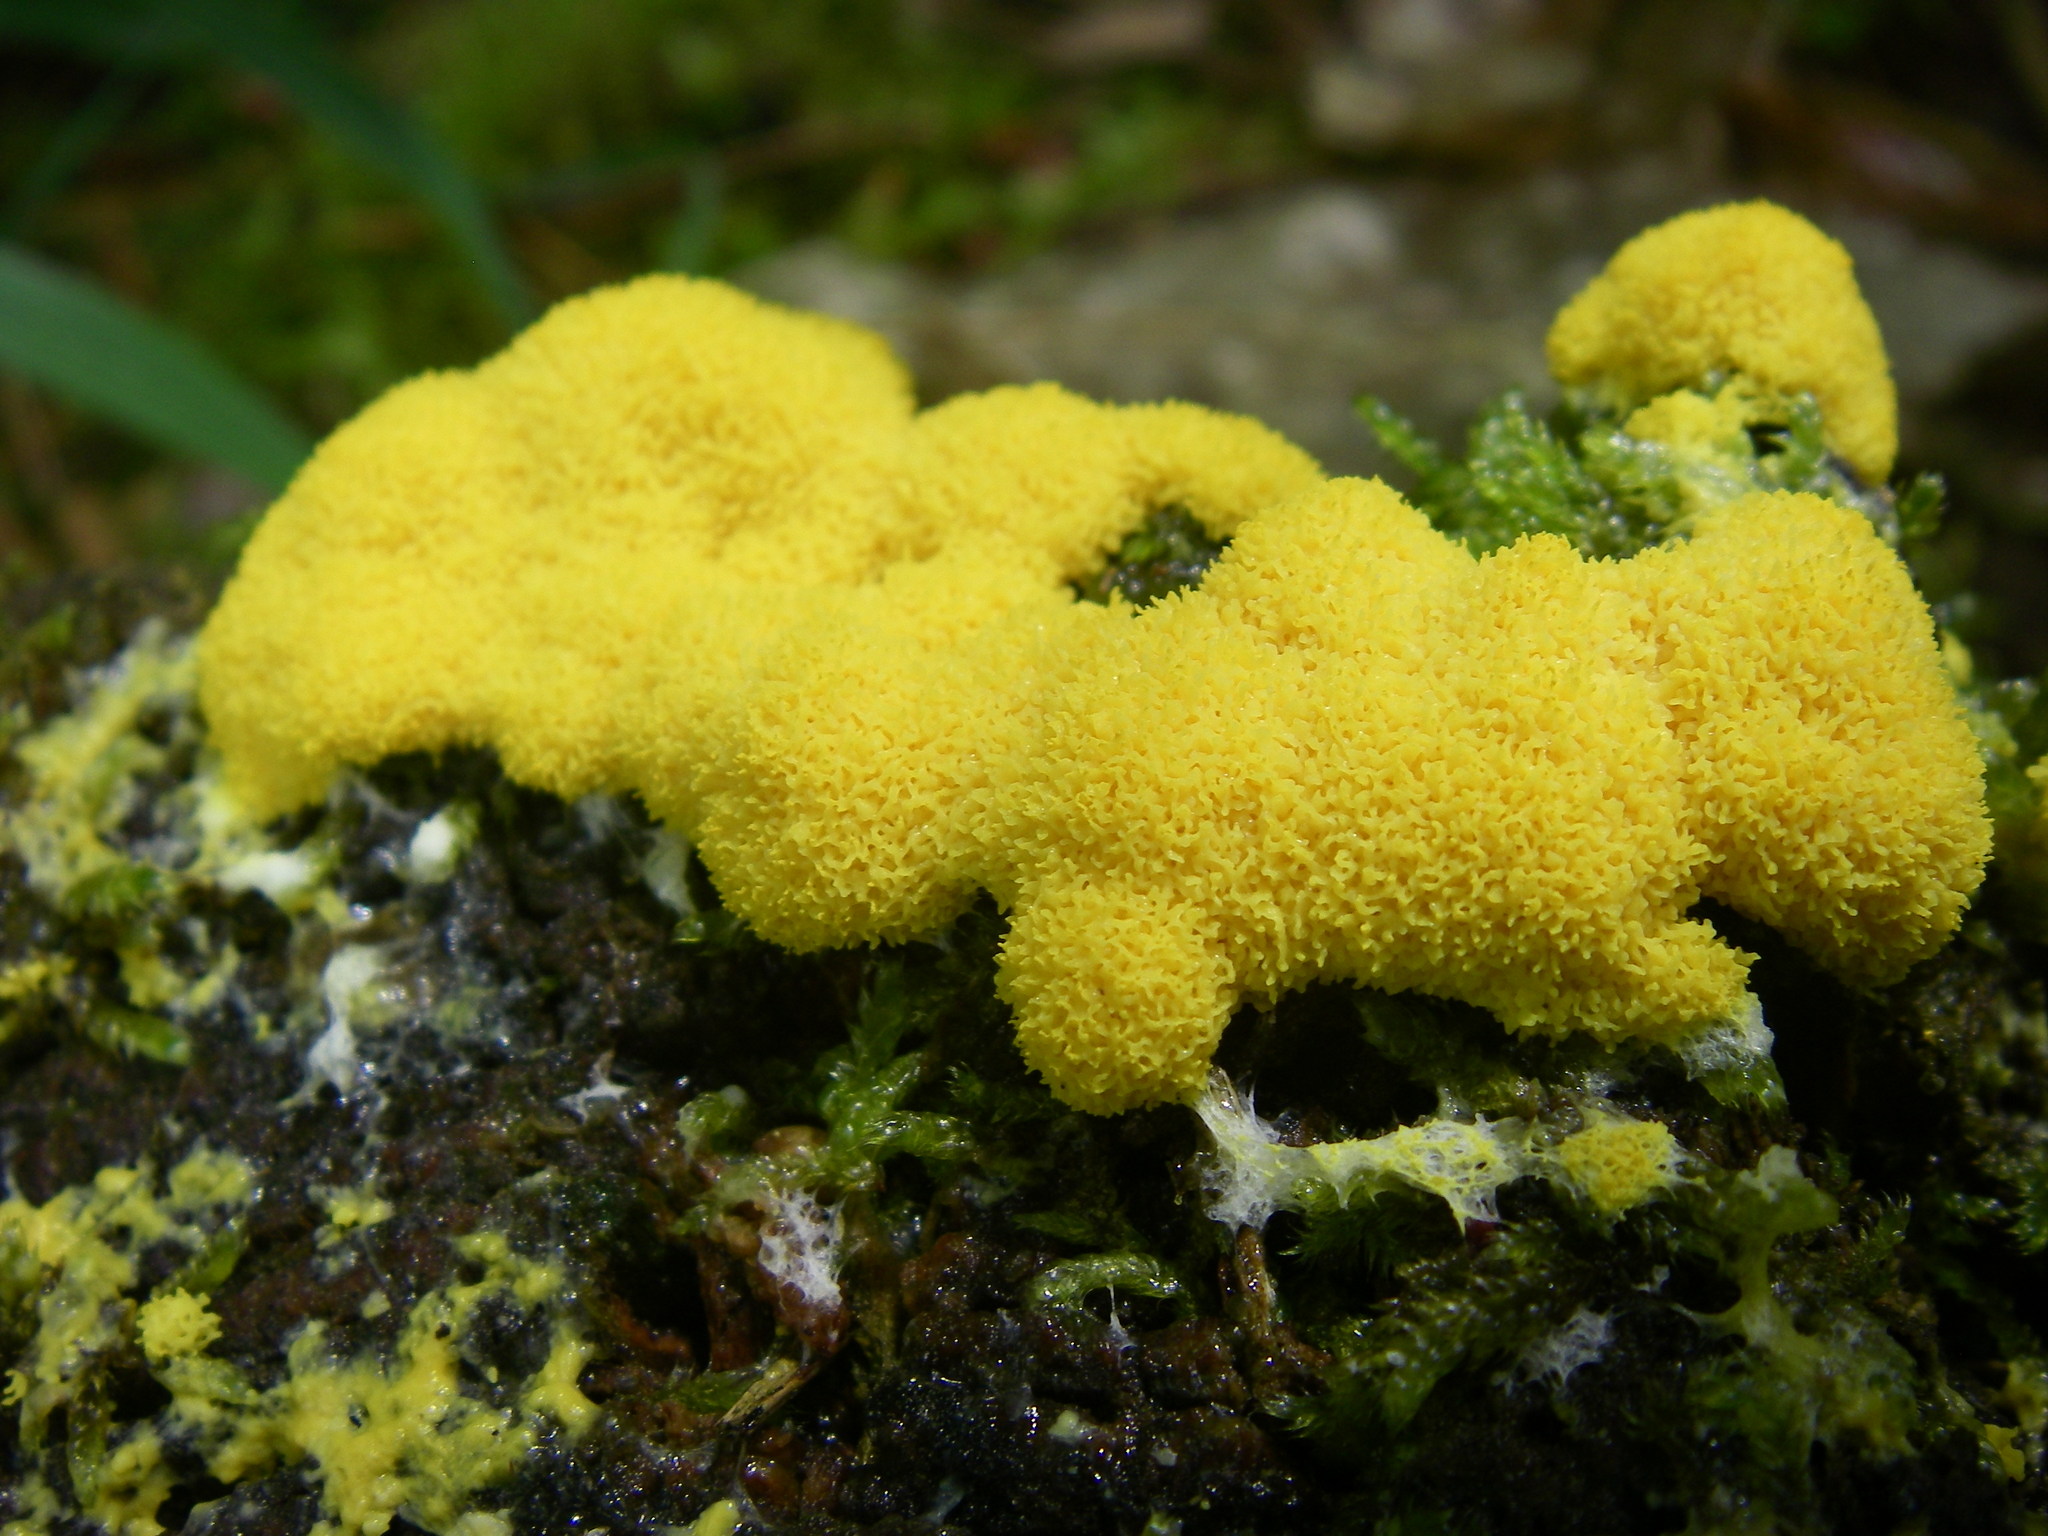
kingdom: Protozoa
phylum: Mycetozoa
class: Myxomycetes
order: Physarales
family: Physaraceae
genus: Fuligo
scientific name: Fuligo septica
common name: Dog vomit slime mold
